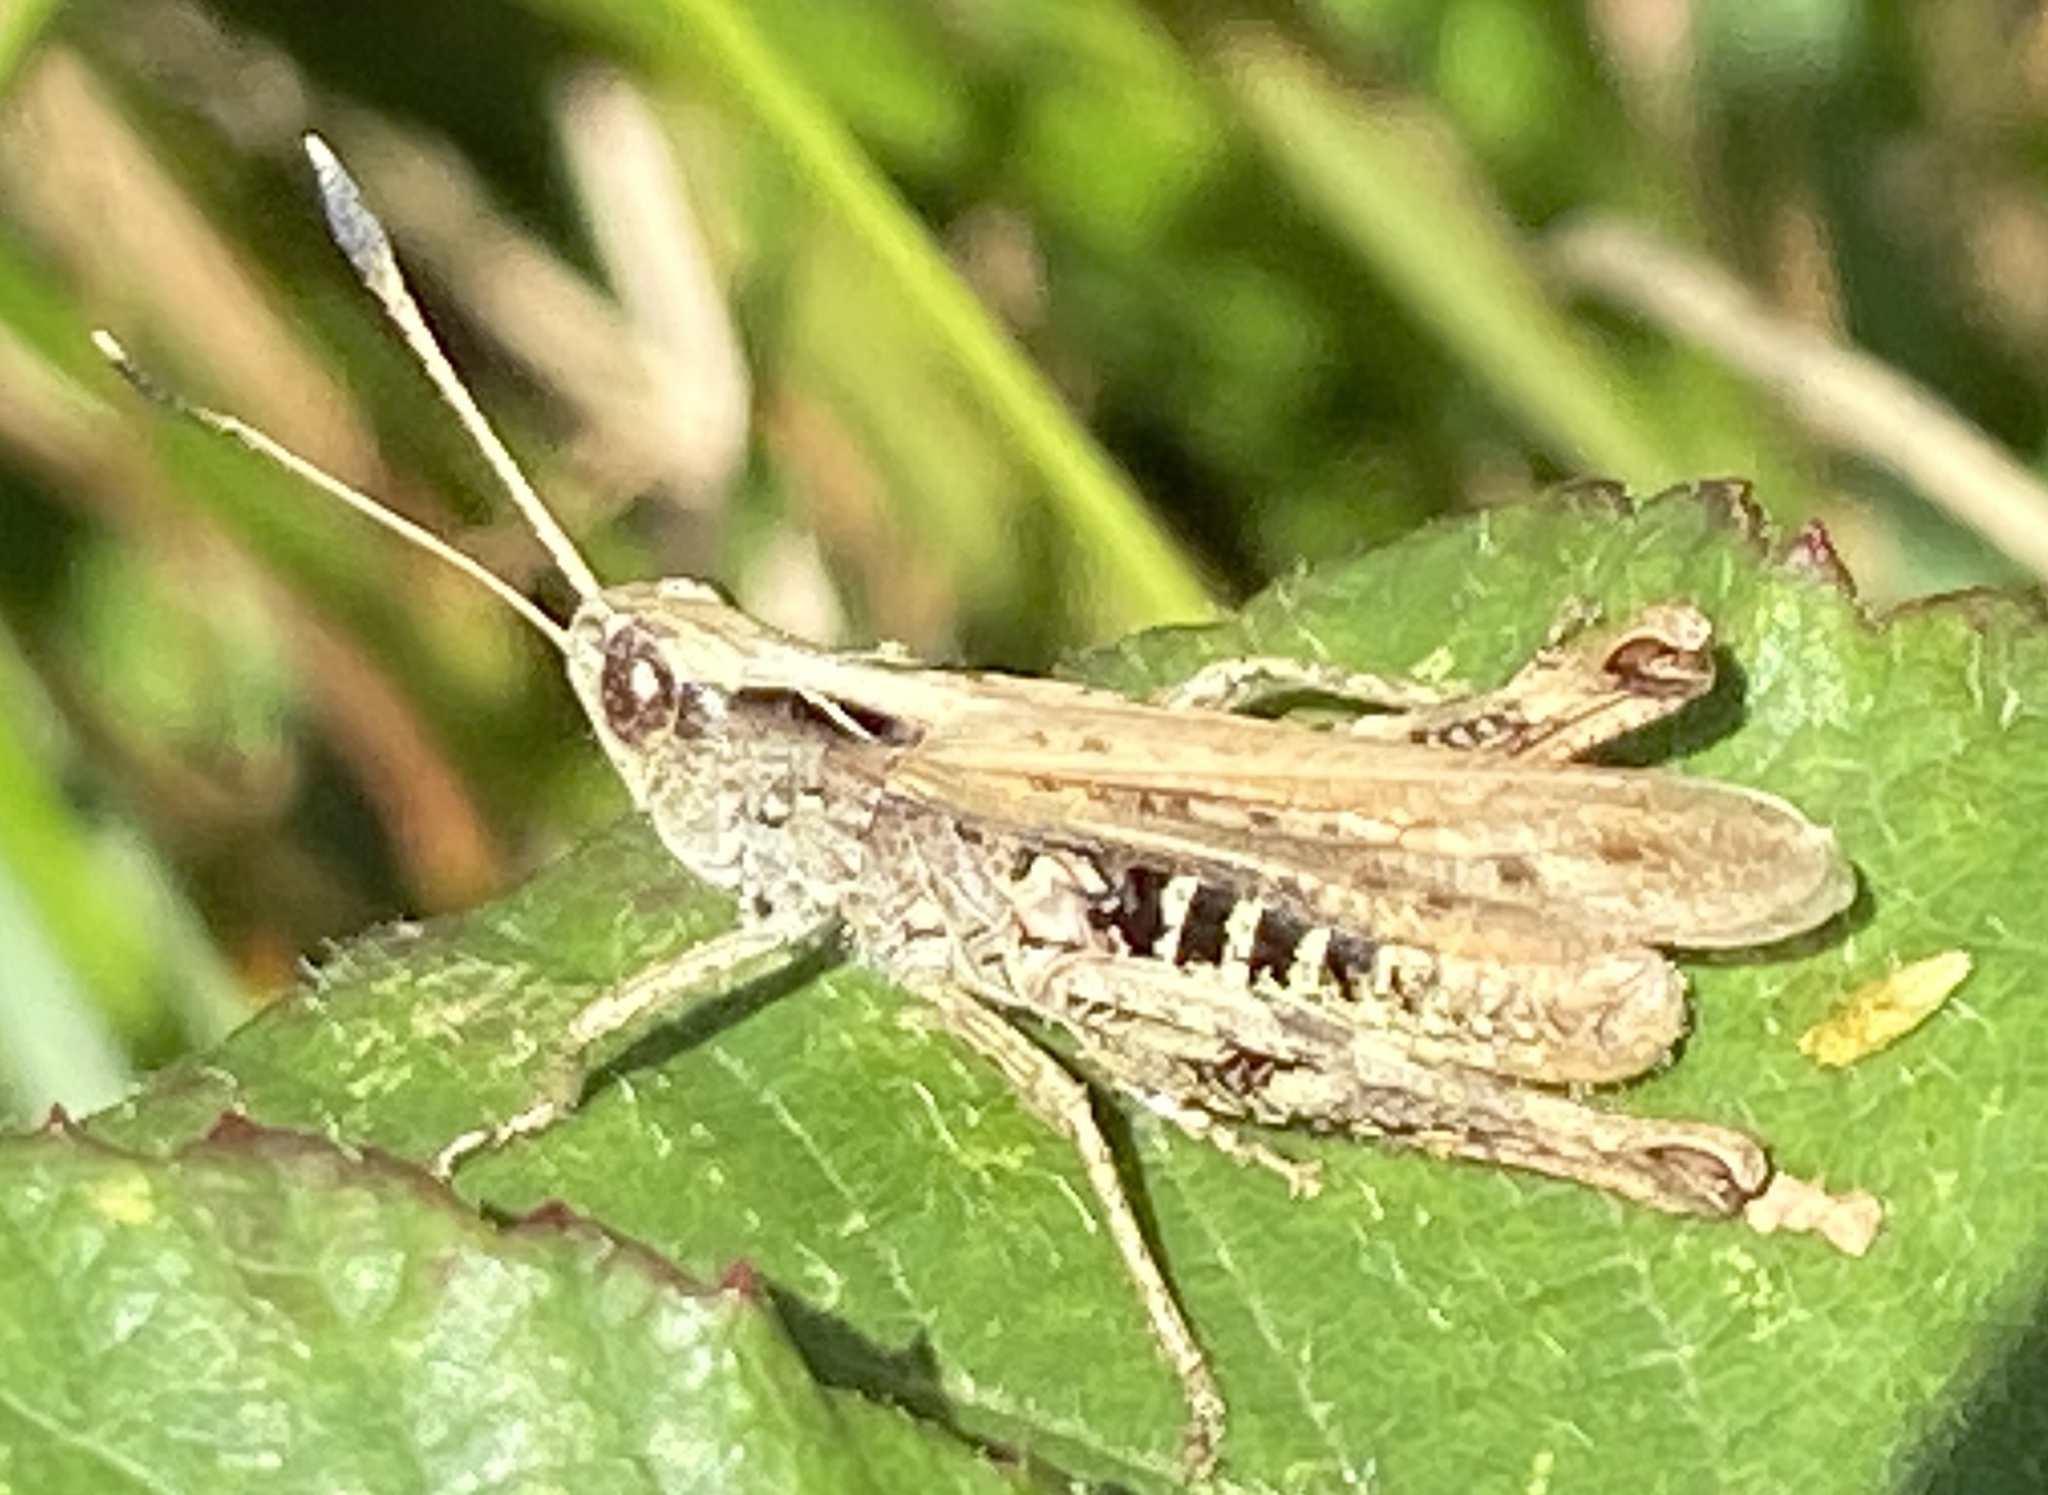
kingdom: Animalia
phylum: Arthropoda
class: Insecta
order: Orthoptera
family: Acrididae
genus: Gomphocerippus
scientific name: Gomphocerippus rufus
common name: Rufous grasshopper
